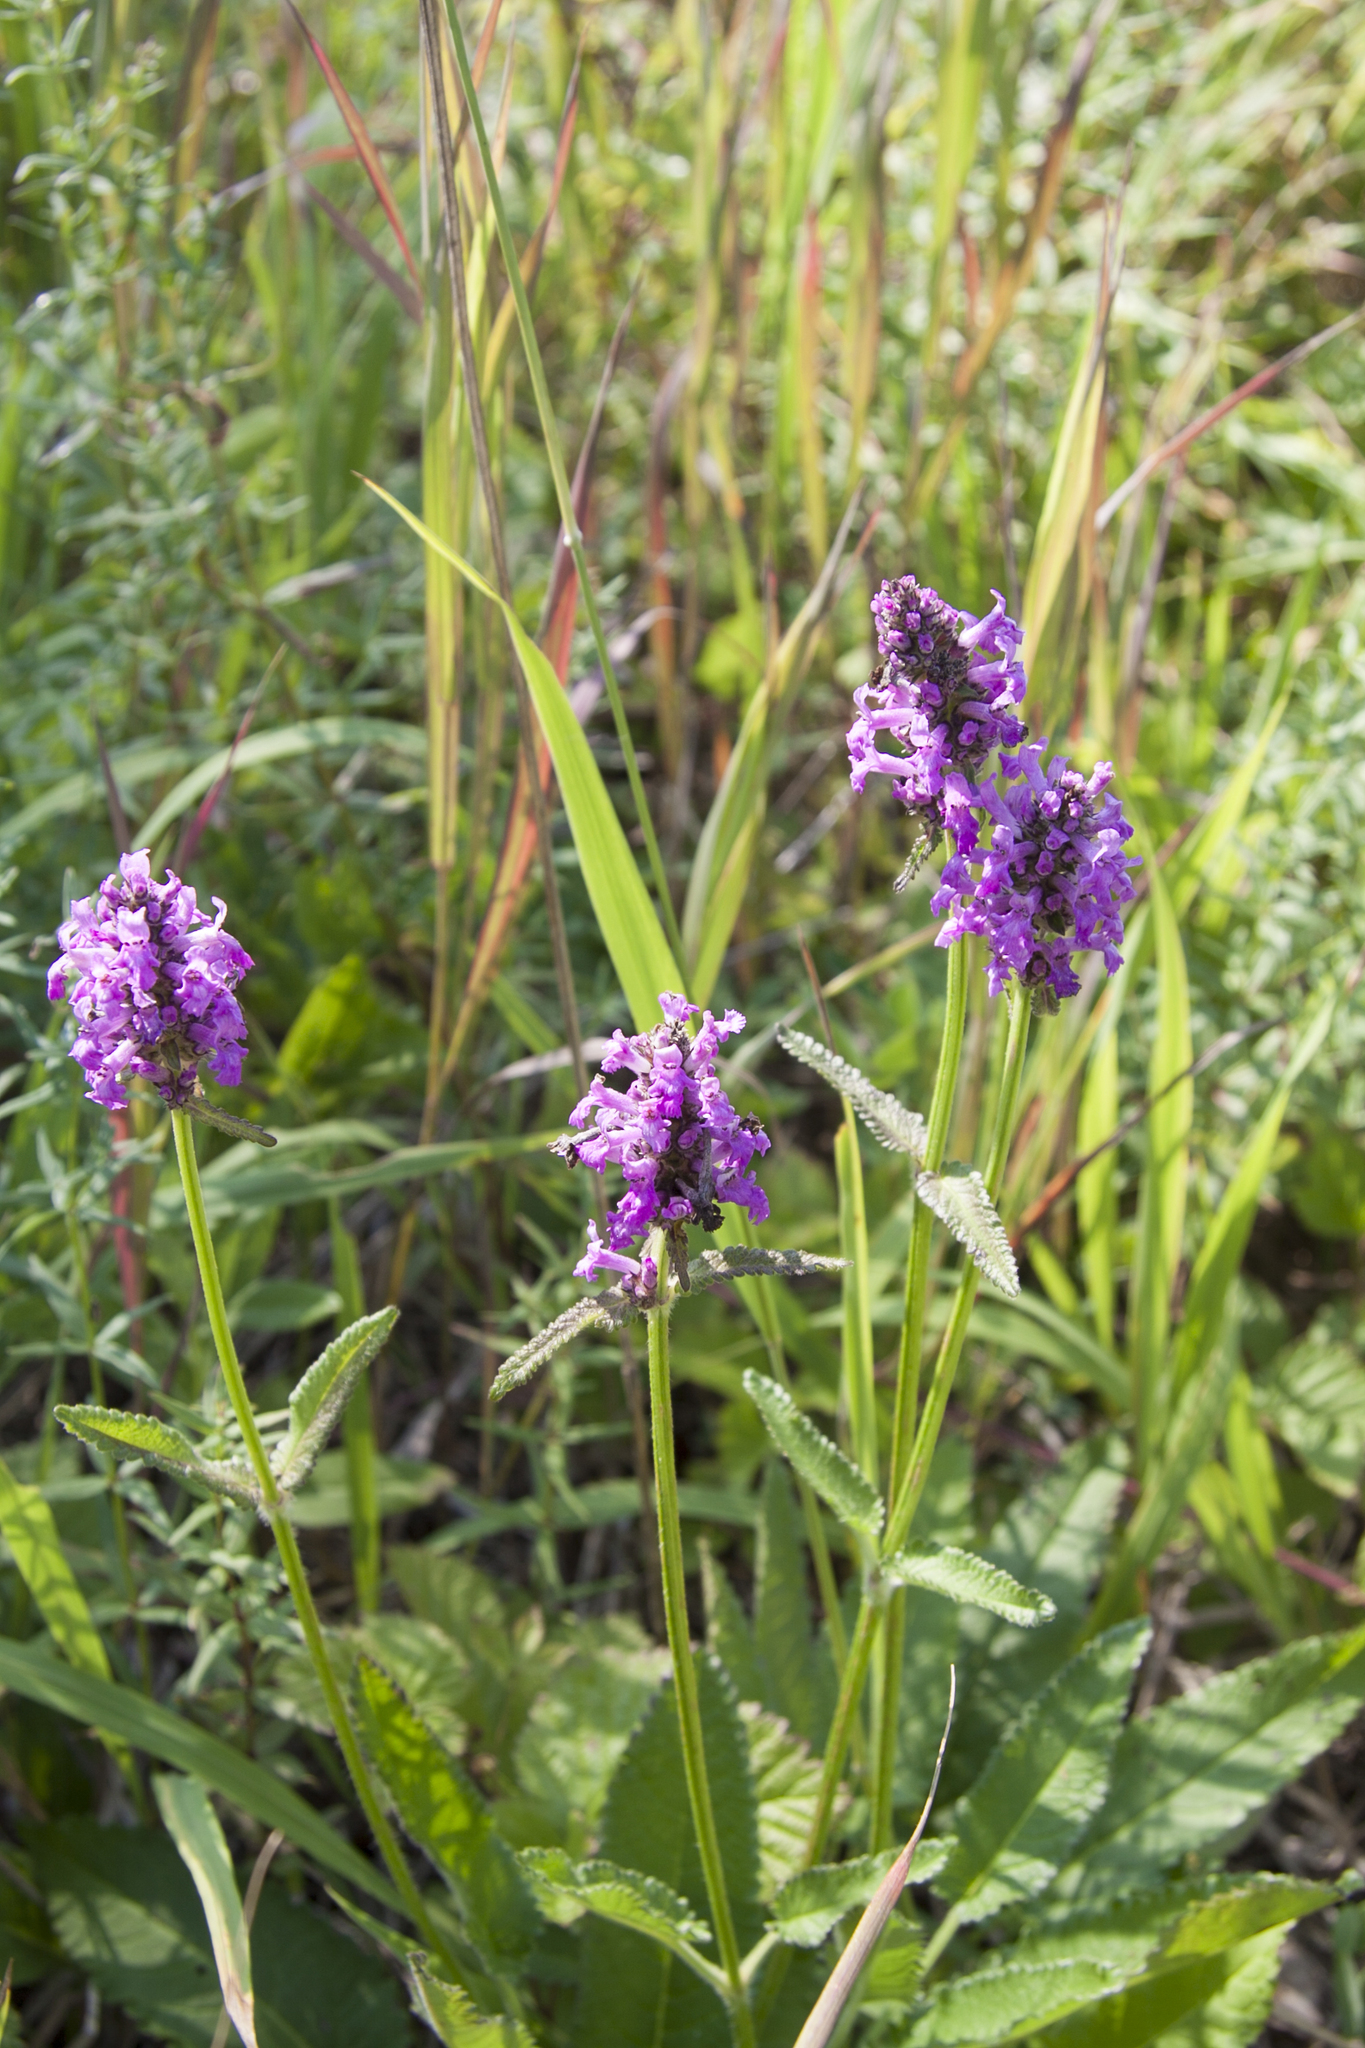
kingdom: Plantae
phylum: Tracheophyta
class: Magnoliopsida
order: Lamiales
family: Lamiaceae
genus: Betonica
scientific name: Betonica officinalis
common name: Bishop's-wort
